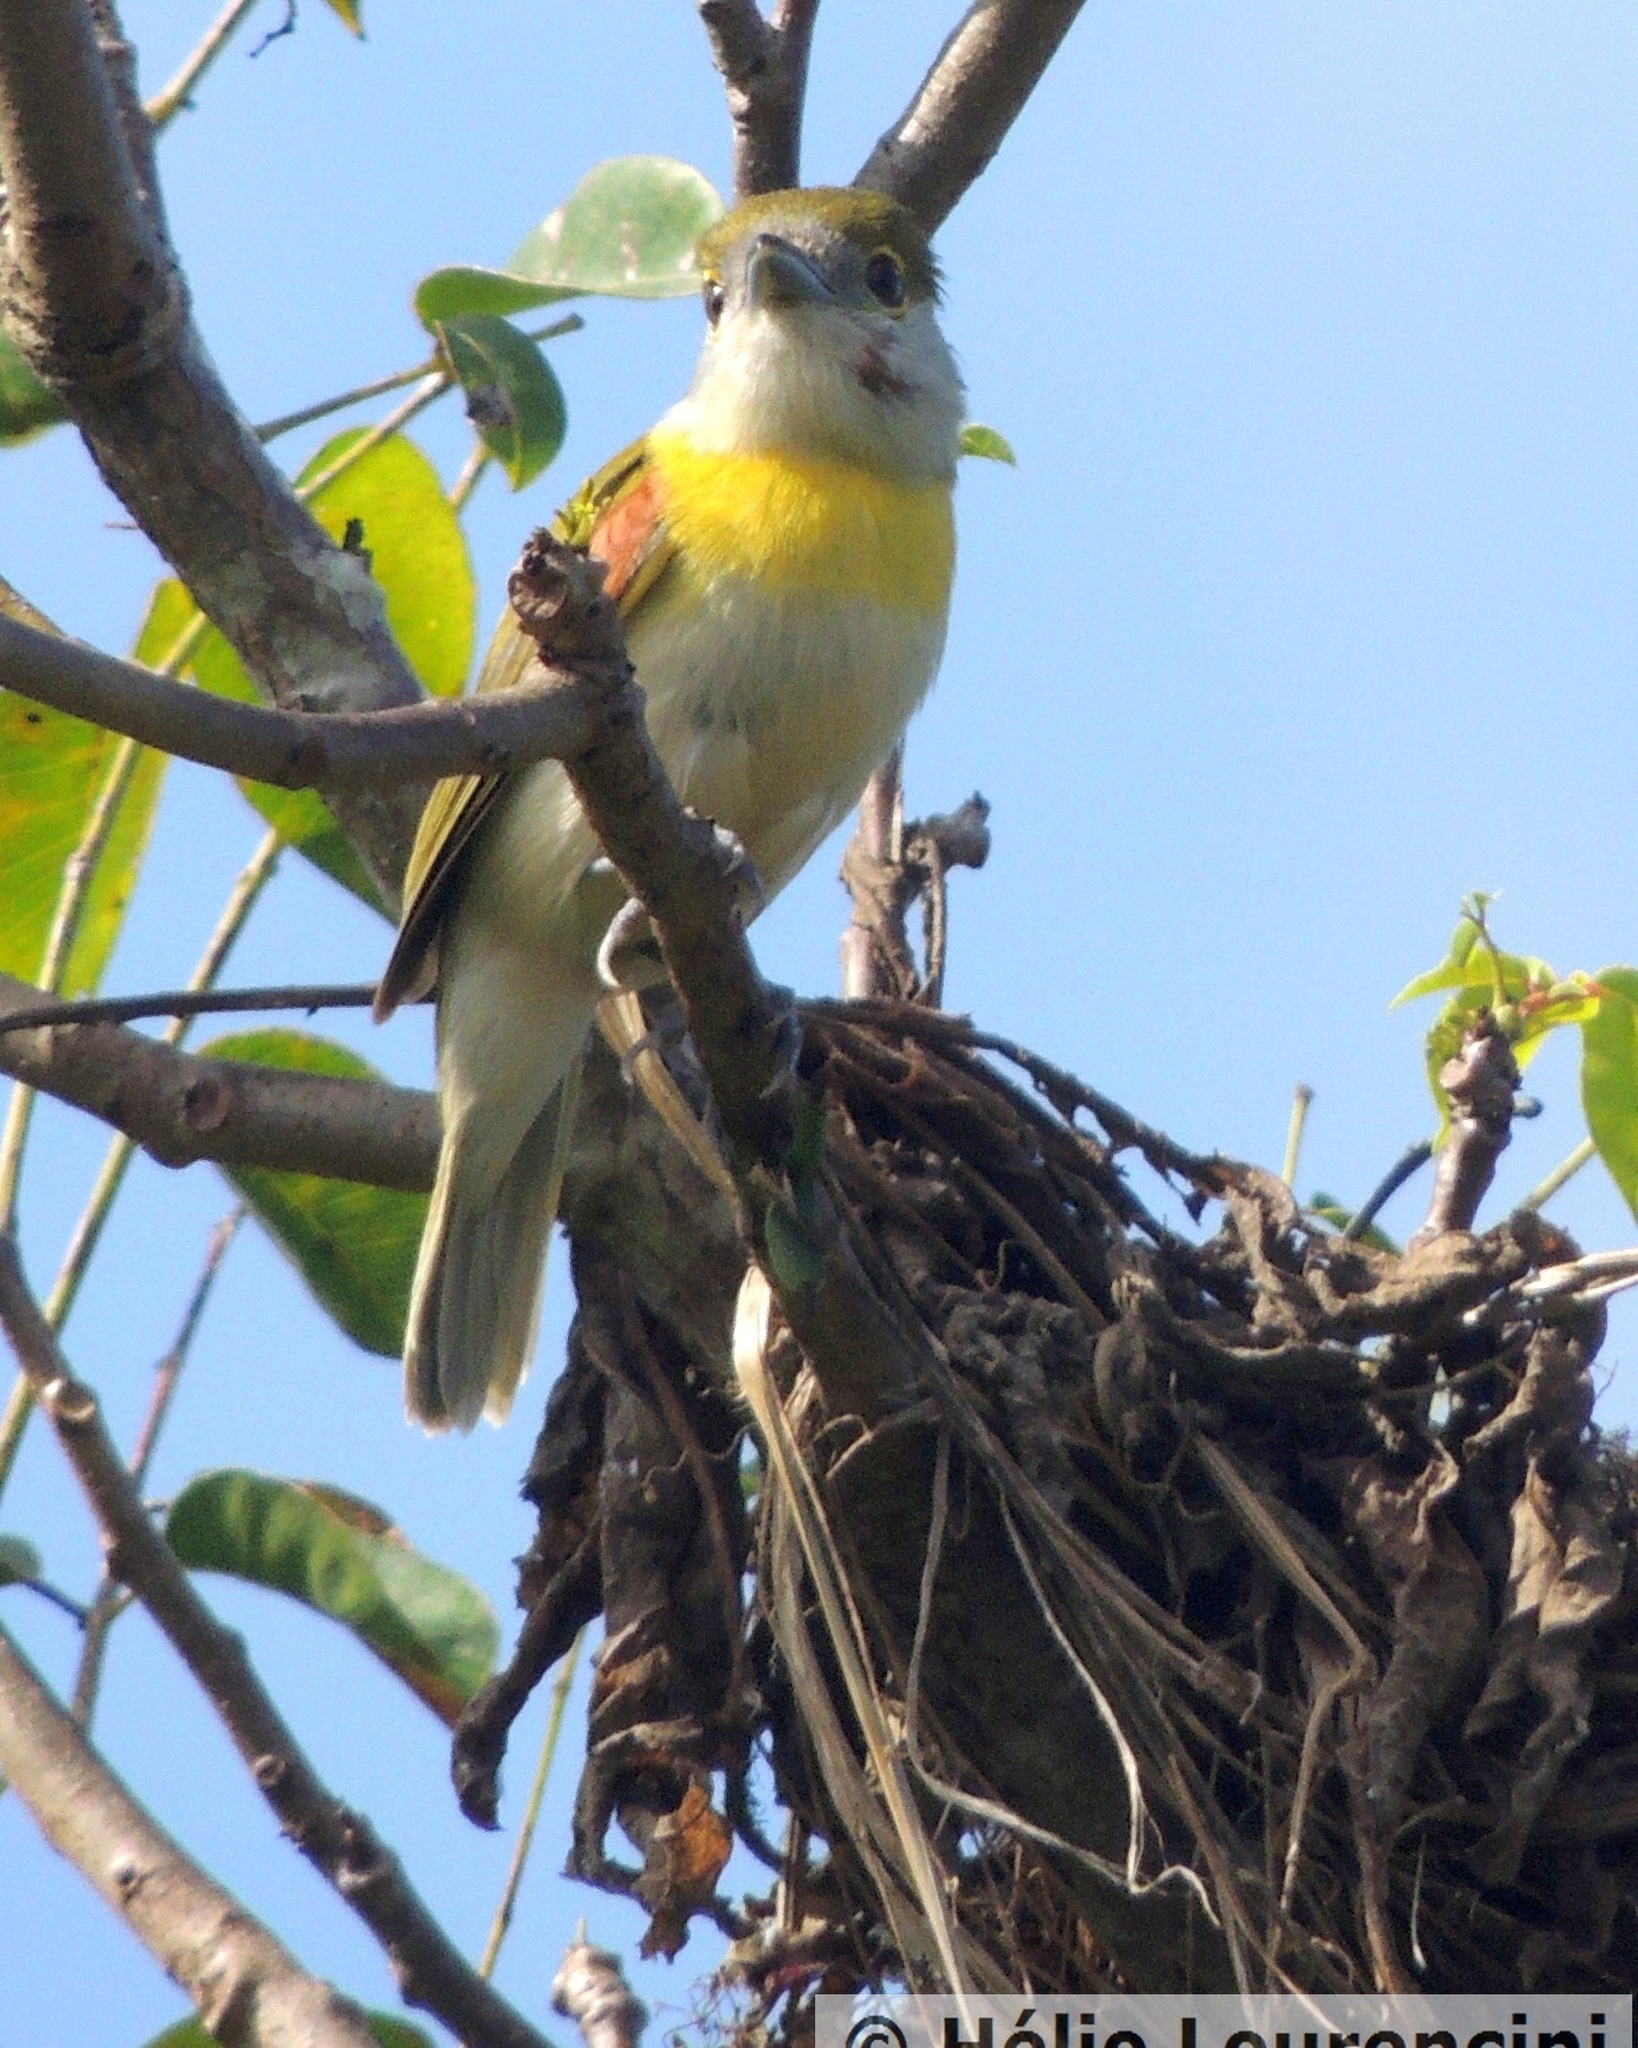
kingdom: Animalia
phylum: Chordata
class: Aves
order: Passeriformes
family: Cotingidae
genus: Pachyramphus
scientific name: Pachyramphus viridis
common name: Green-backed becard
